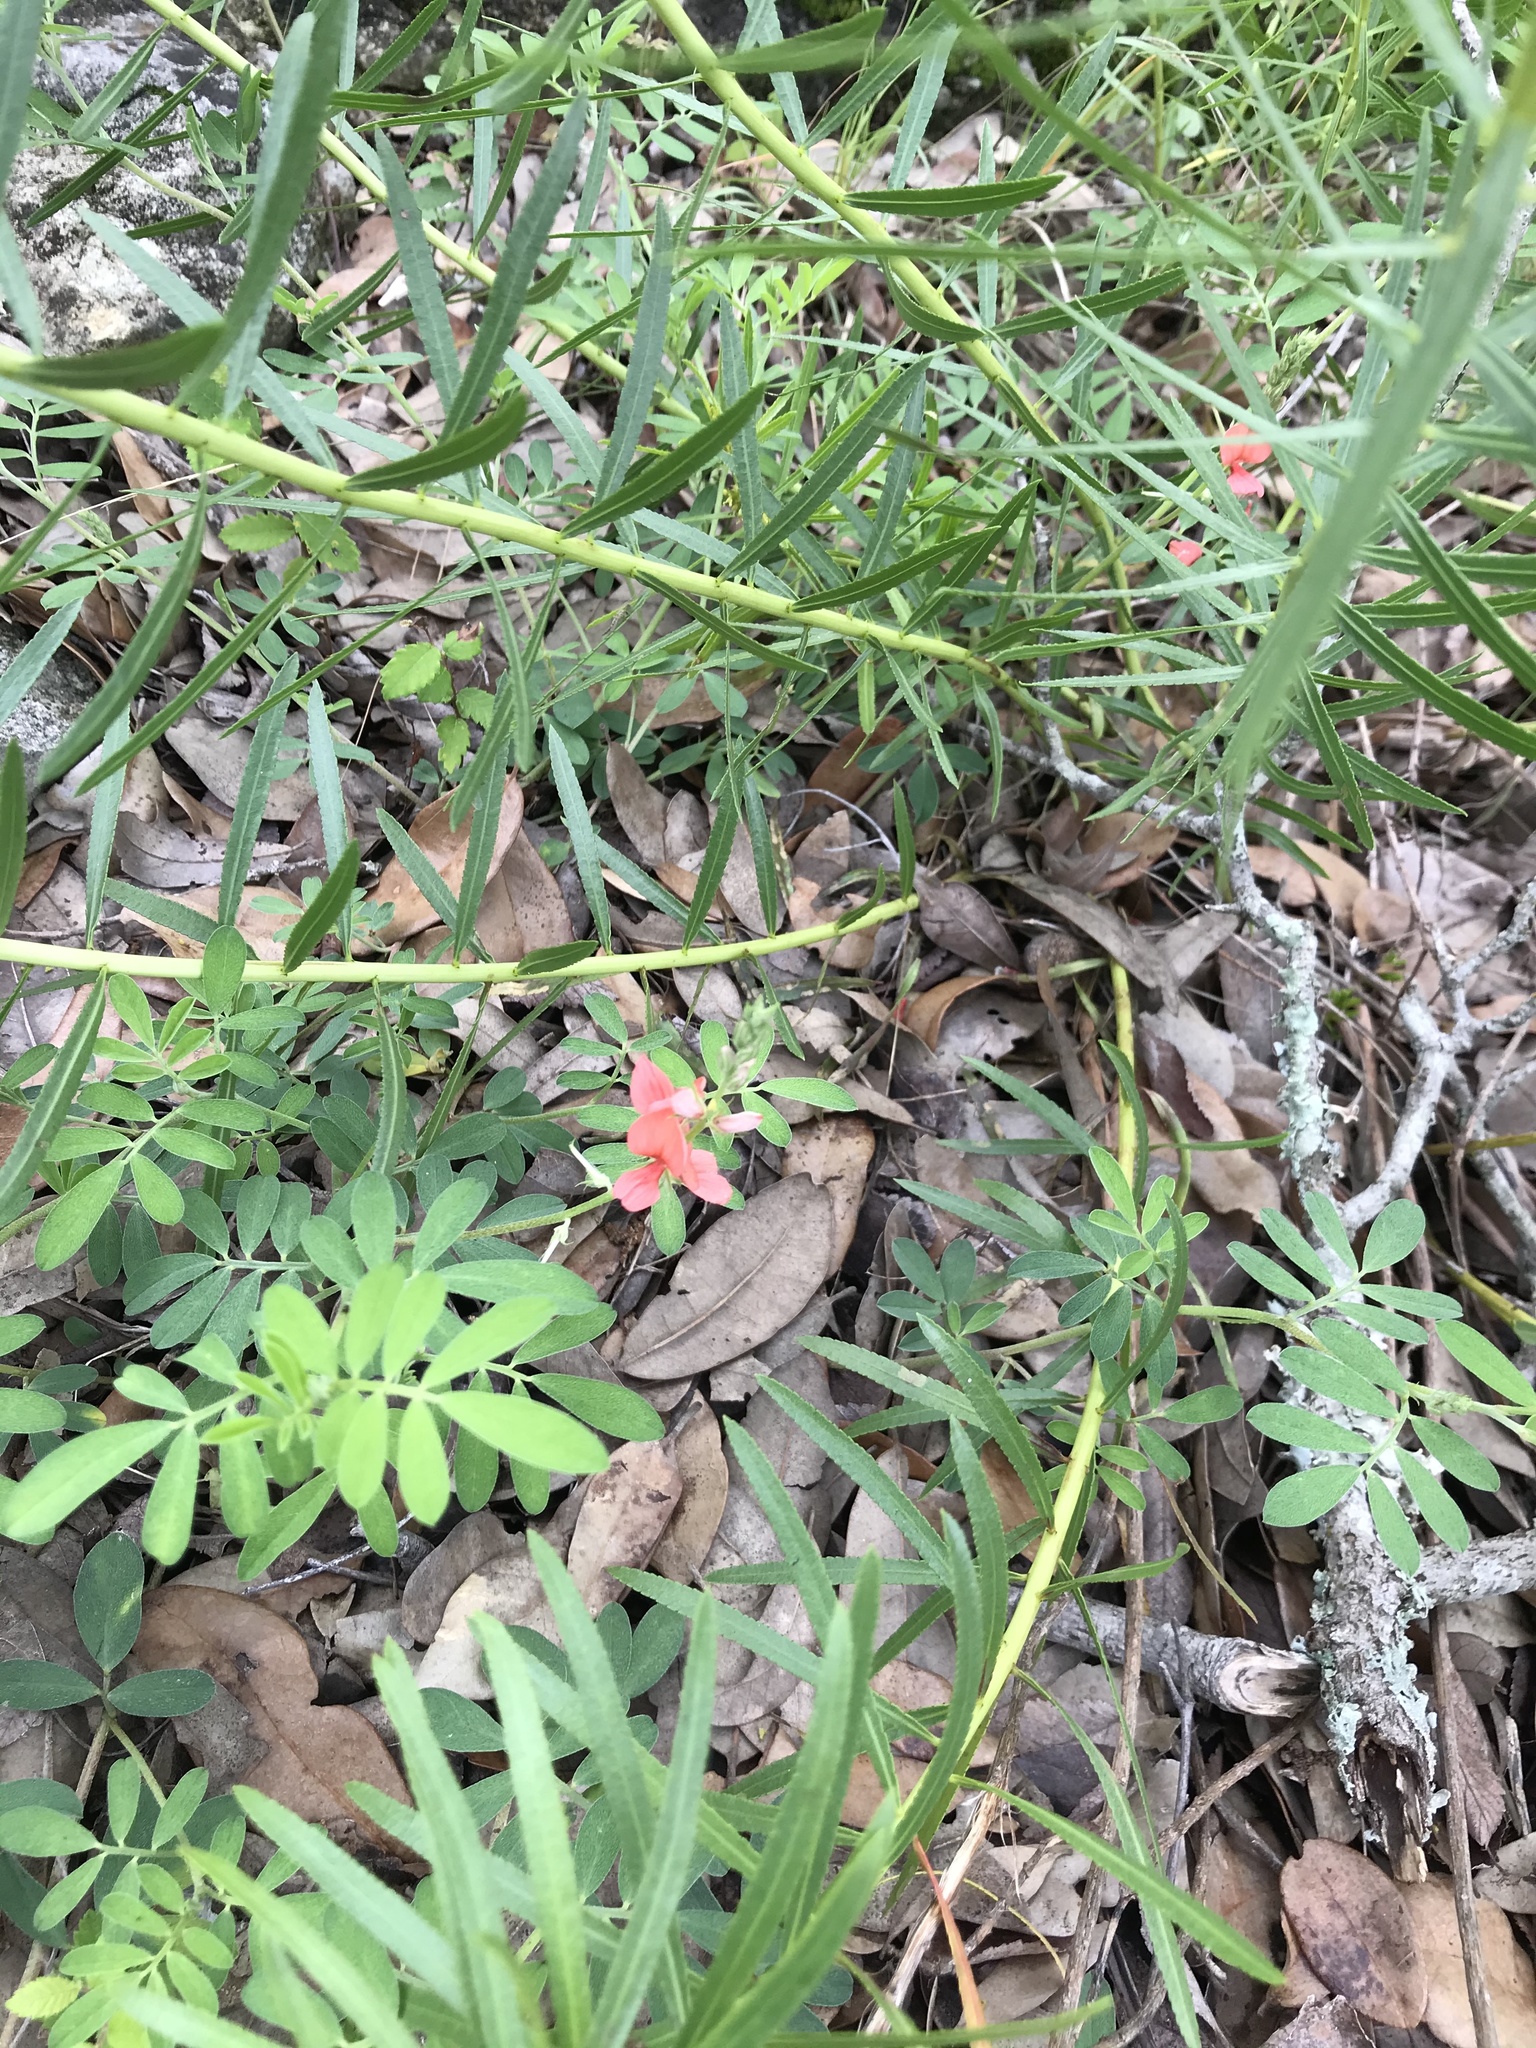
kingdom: Plantae
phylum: Tracheophyta
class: Magnoliopsida
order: Fabales
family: Fabaceae
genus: Indigofera
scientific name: Indigofera miniata
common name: Coast indigo
